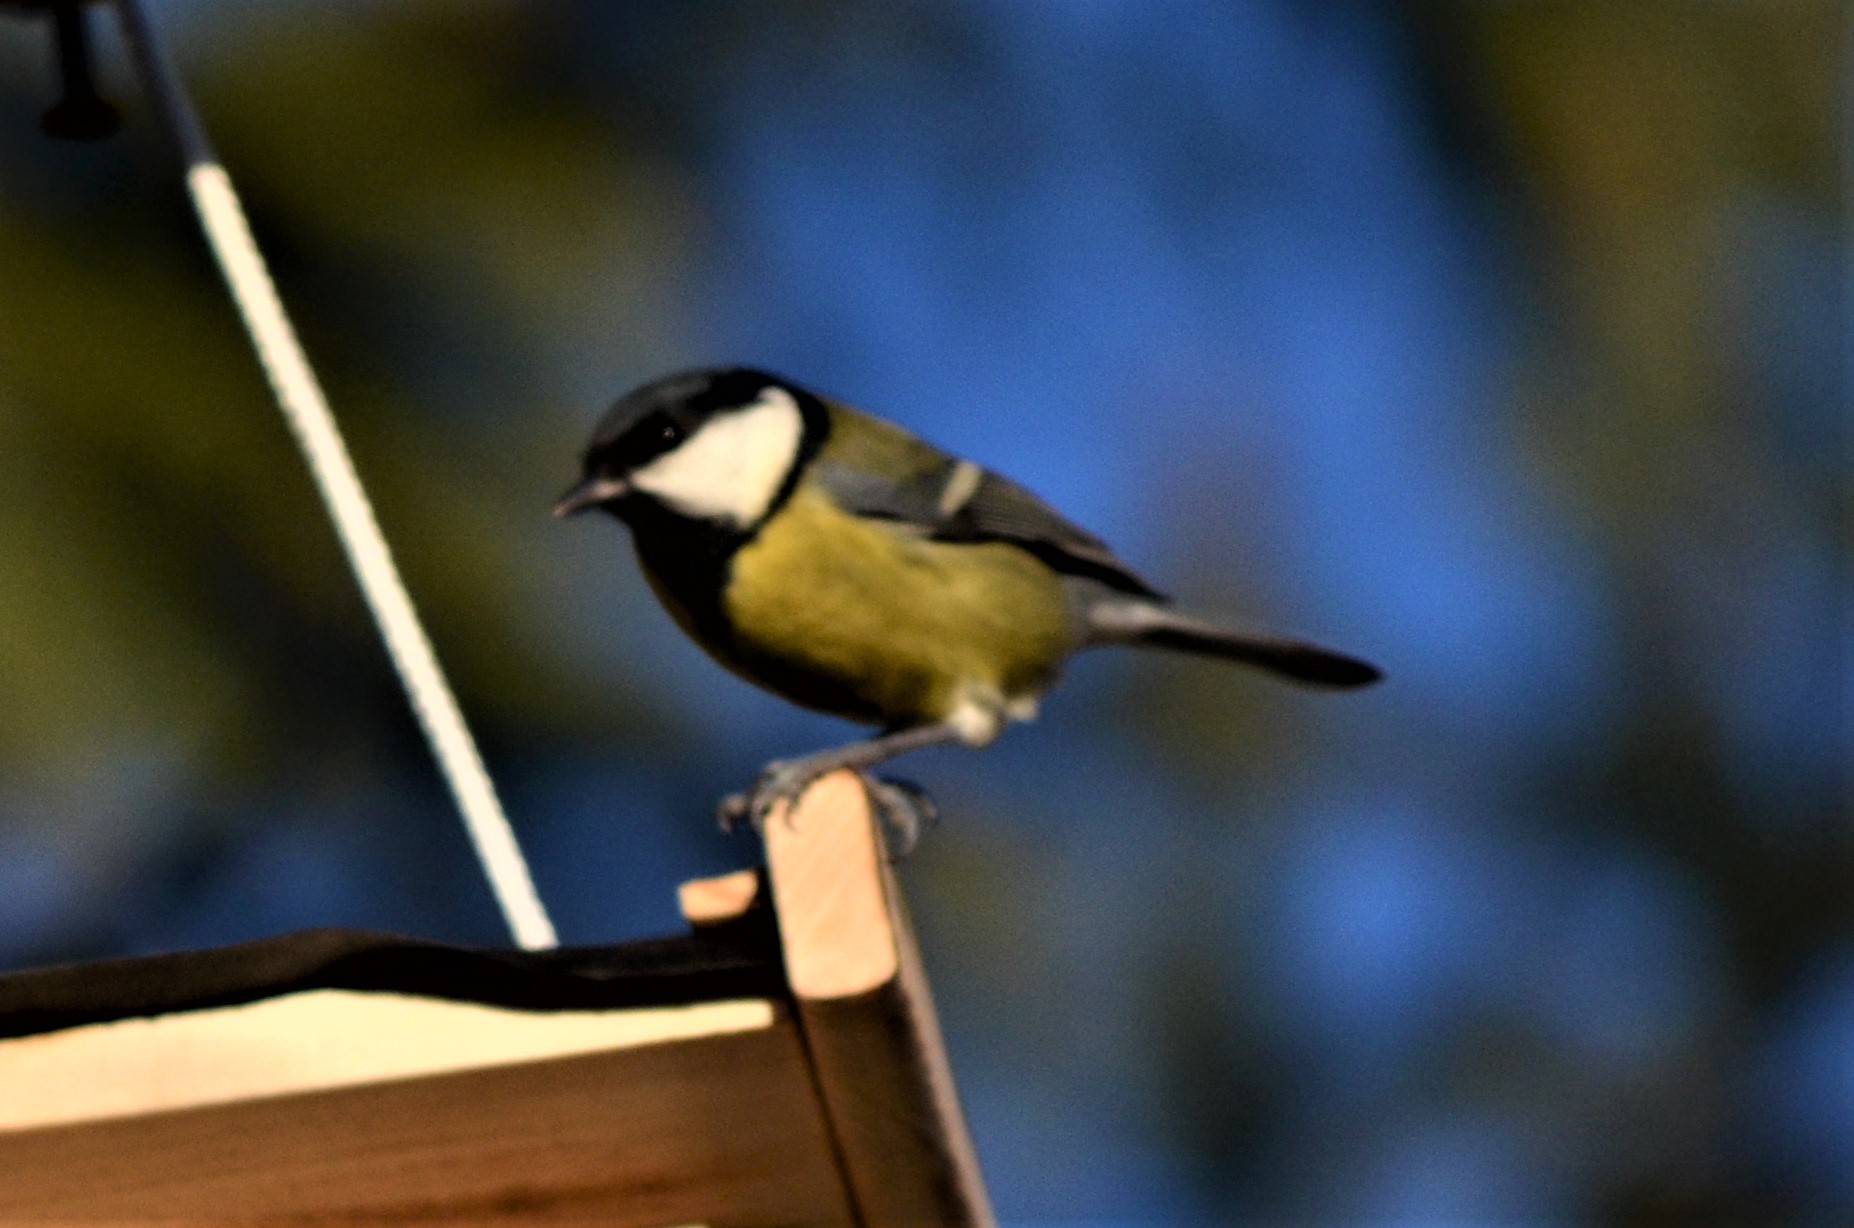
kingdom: Animalia
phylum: Chordata
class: Aves
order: Passeriformes
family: Paridae
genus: Parus
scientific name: Parus major
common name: Great tit
